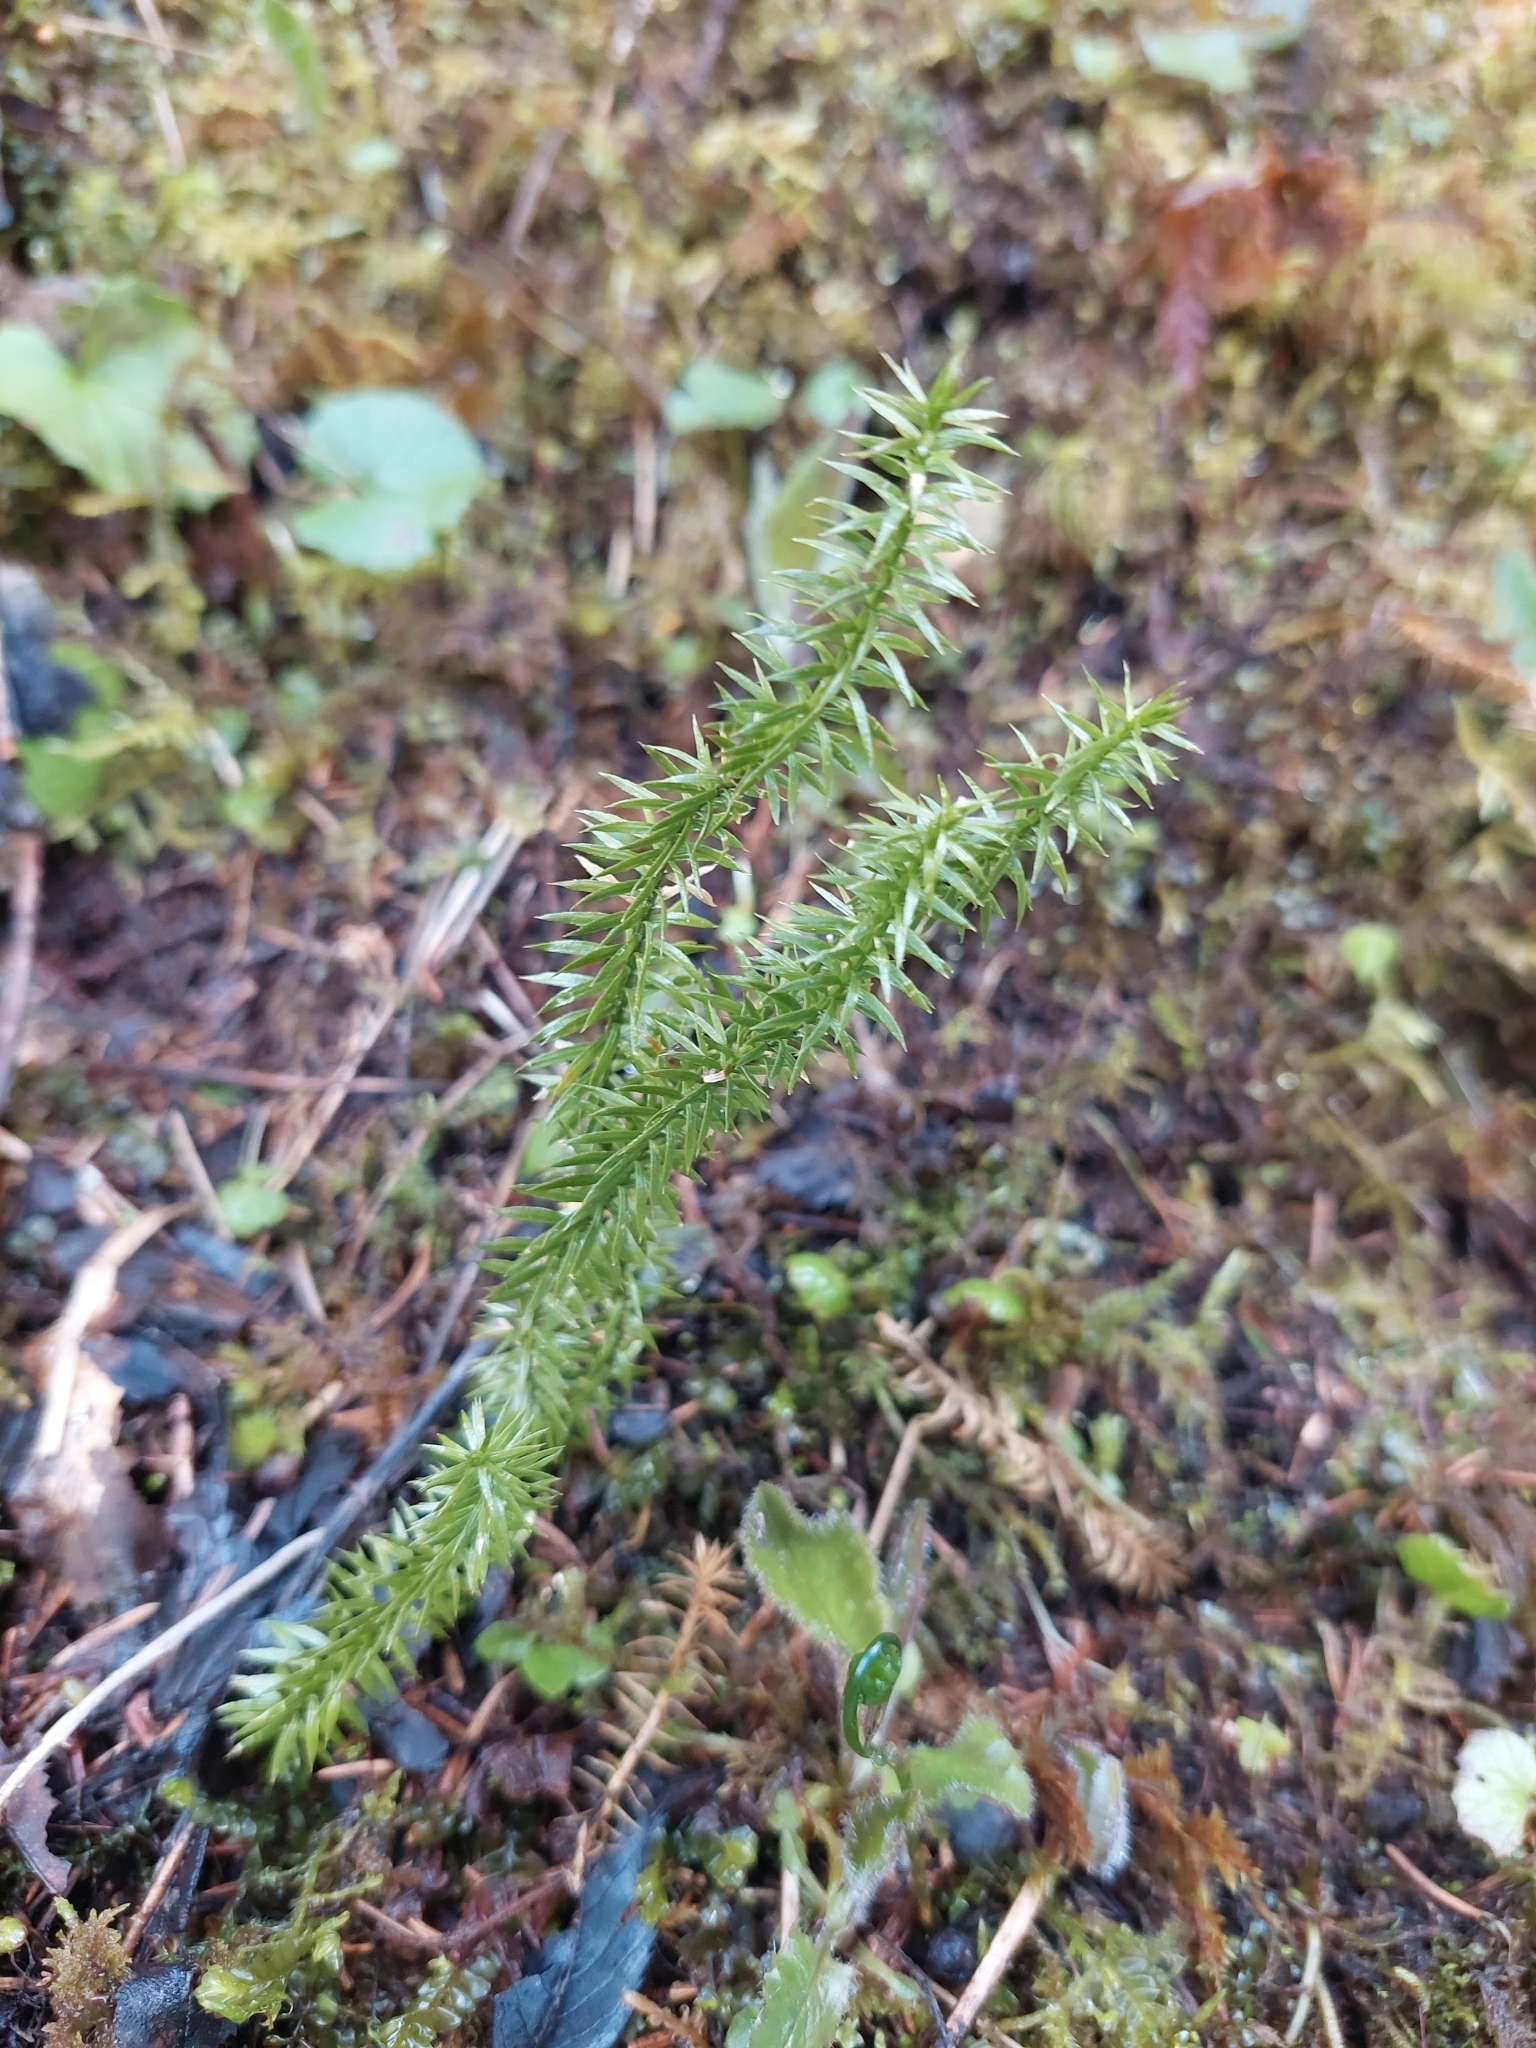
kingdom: Plantae
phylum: Tracheophyta
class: Lycopodiopsida
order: Lycopodiales
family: Lycopodiaceae
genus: Spinulum
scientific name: Spinulum annotinum
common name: Interrupted club-moss
